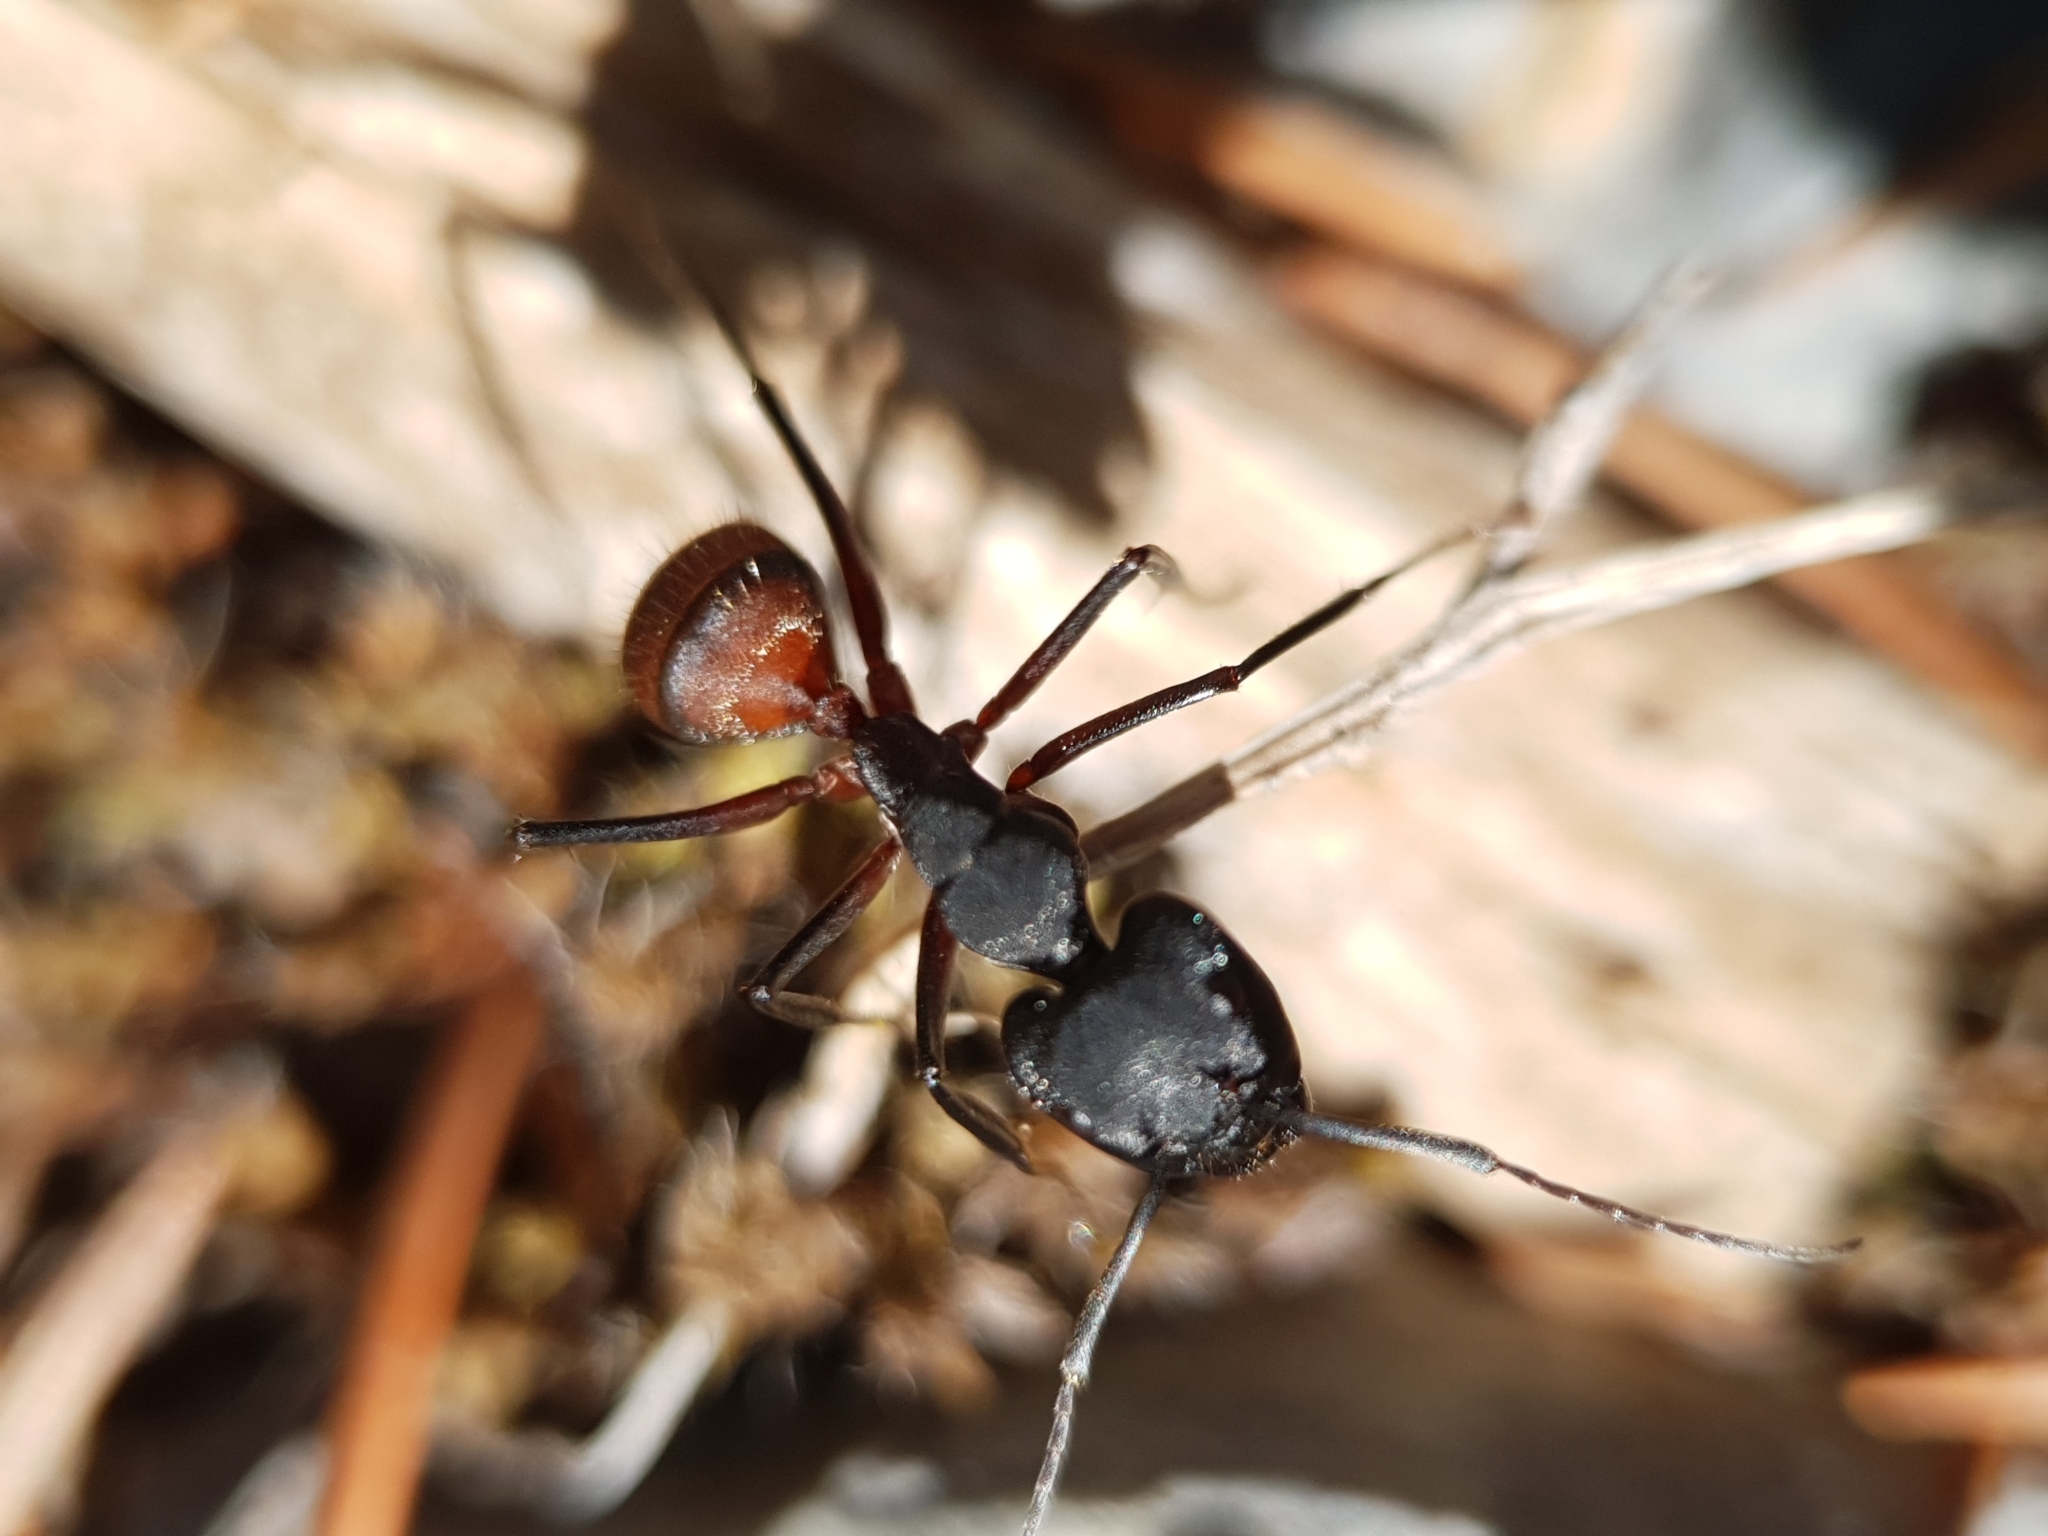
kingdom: Animalia
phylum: Arthropoda
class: Insecta
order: Hymenoptera
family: Formicidae
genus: Camponotus
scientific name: Camponotus cruentatus
